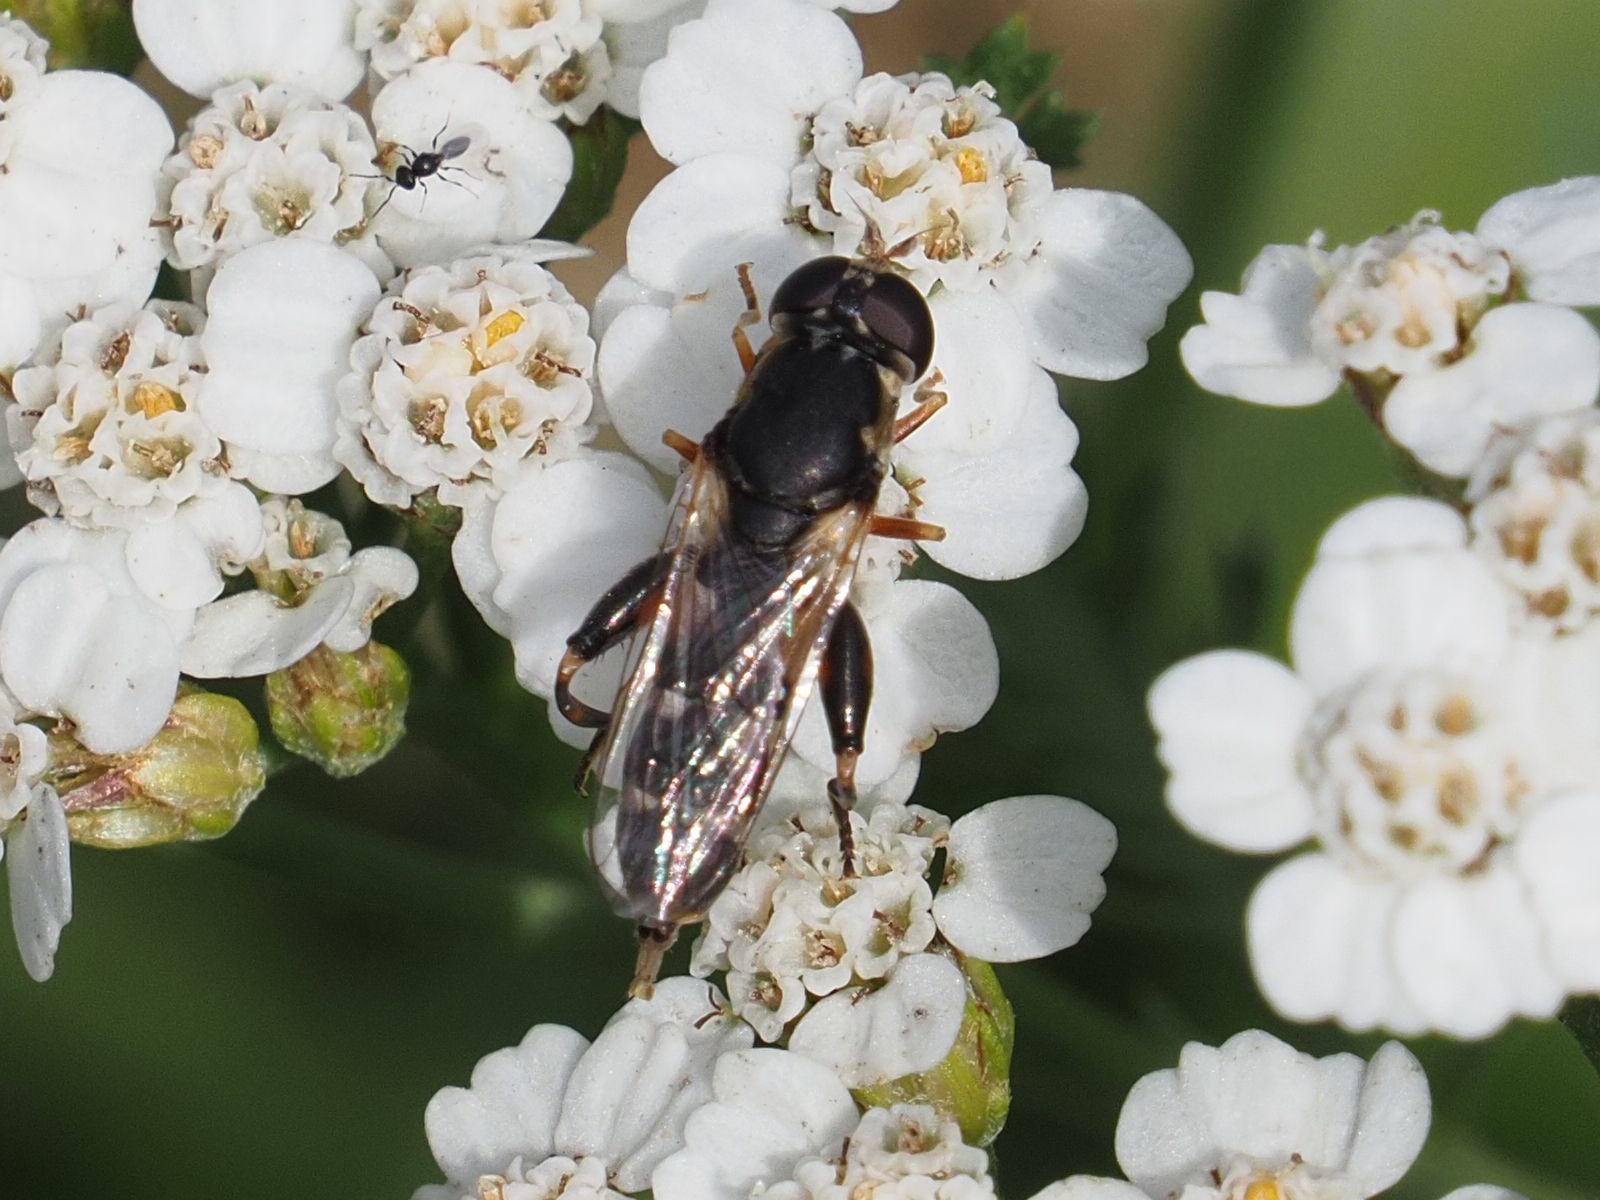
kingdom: Animalia
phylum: Arthropoda
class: Insecta
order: Diptera
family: Syrphidae
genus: Syritta
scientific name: Syritta pipiens
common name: Hover fly
